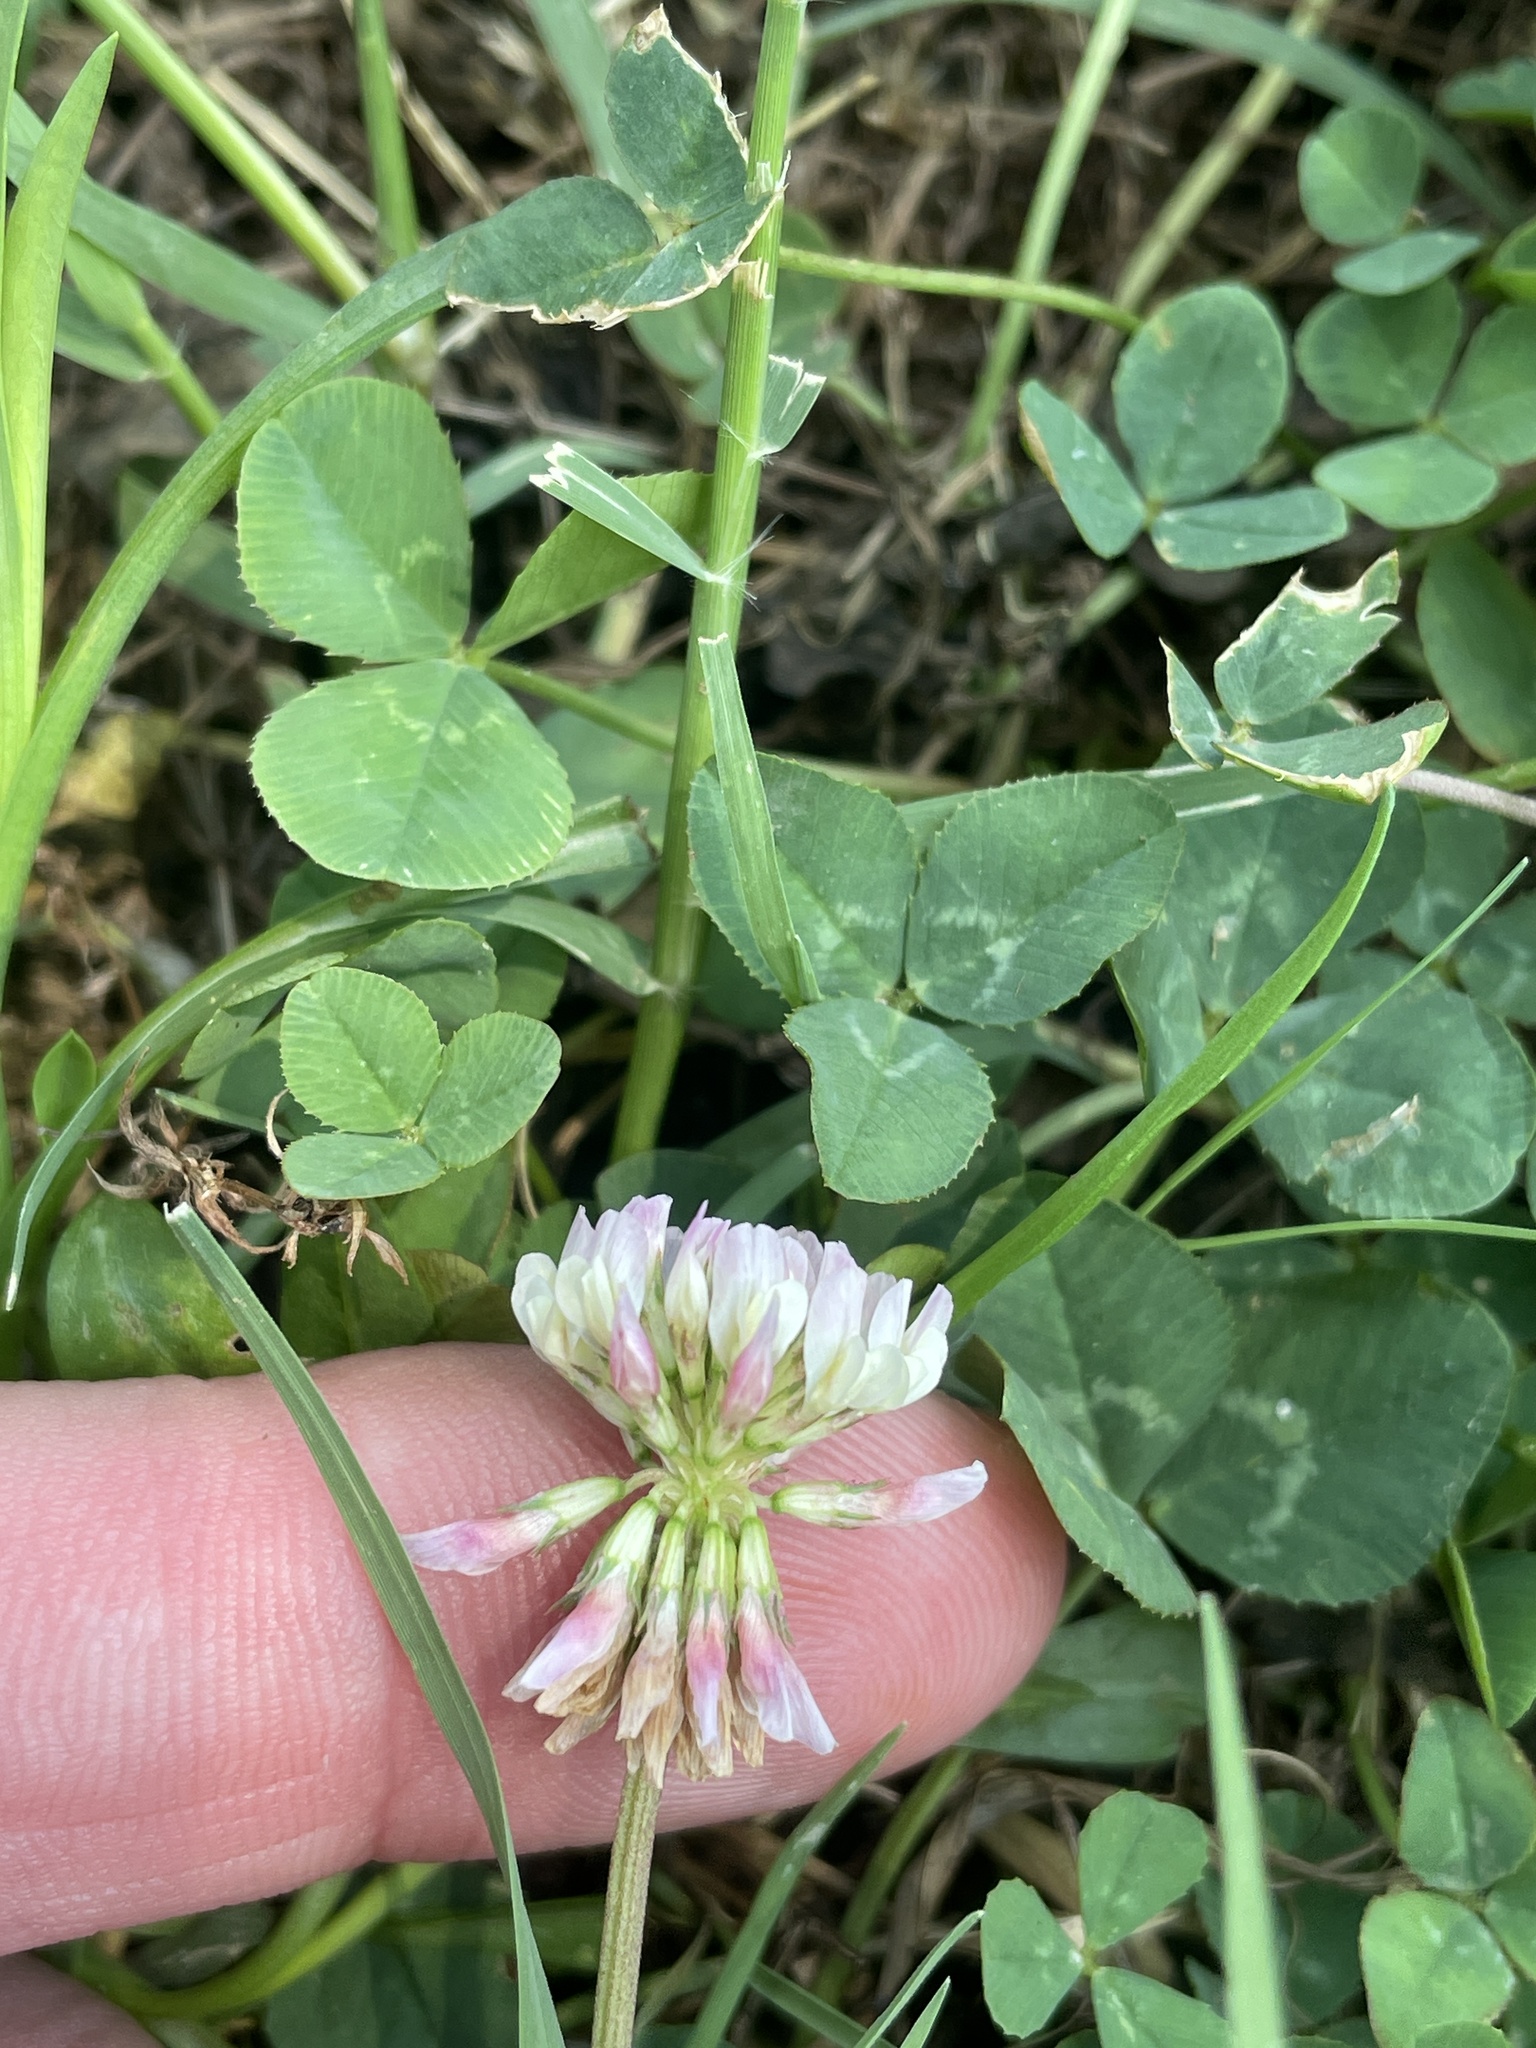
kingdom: Plantae
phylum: Tracheophyta
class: Magnoliopsida
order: Fabales
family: Fabaceae
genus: Trifolium
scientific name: Trifolium repens
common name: White clover
